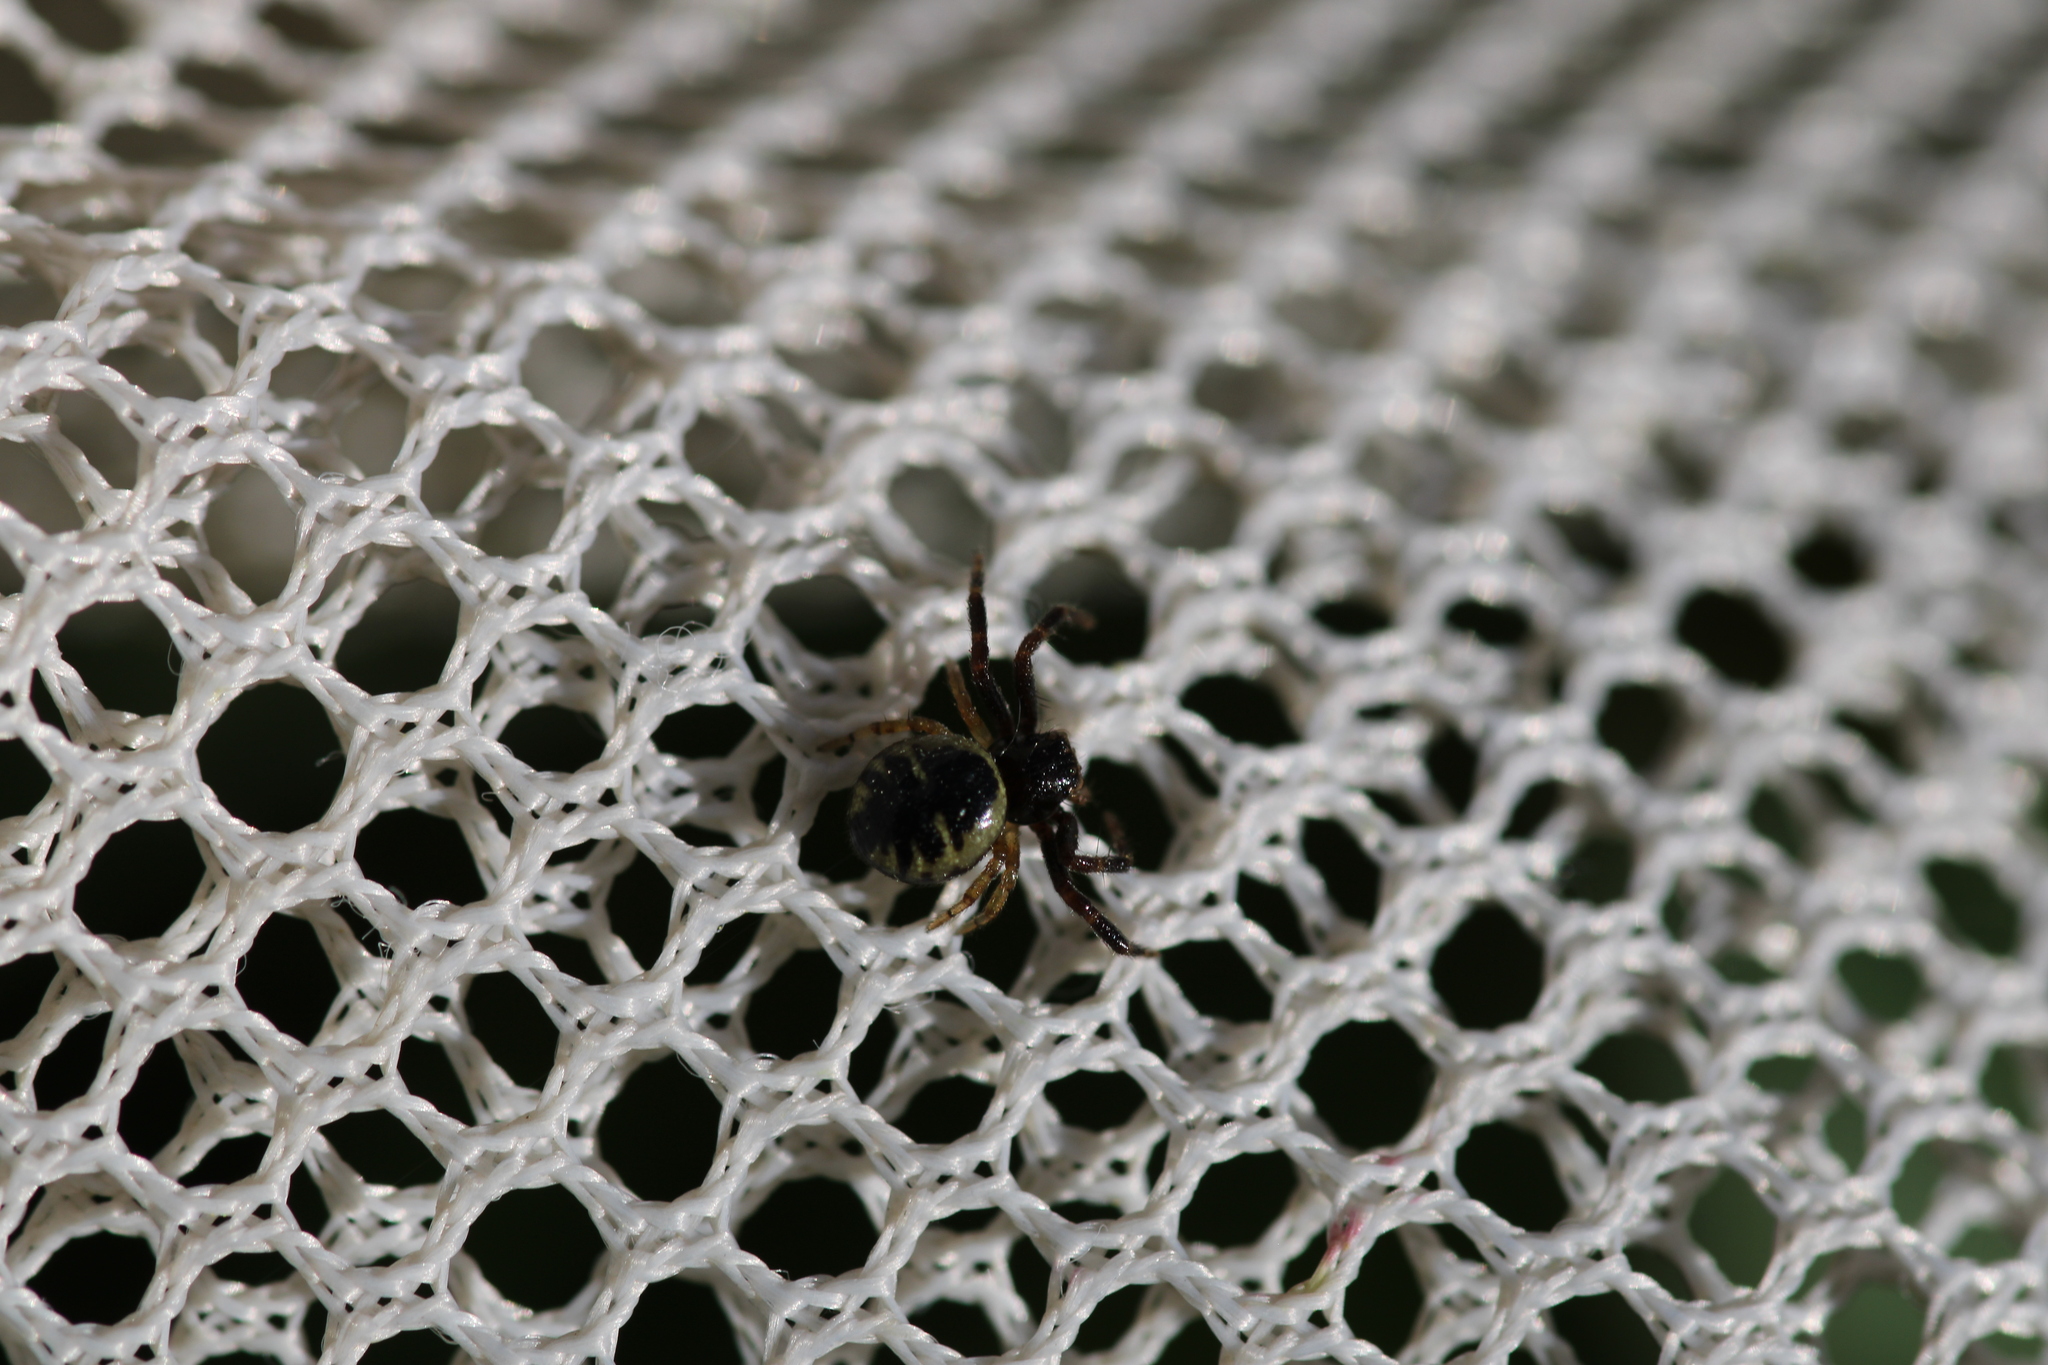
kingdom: Animalia
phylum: Arthropoda
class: Arachnida
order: Araneae
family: Thomisidae
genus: Synema
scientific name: Synema globosum
